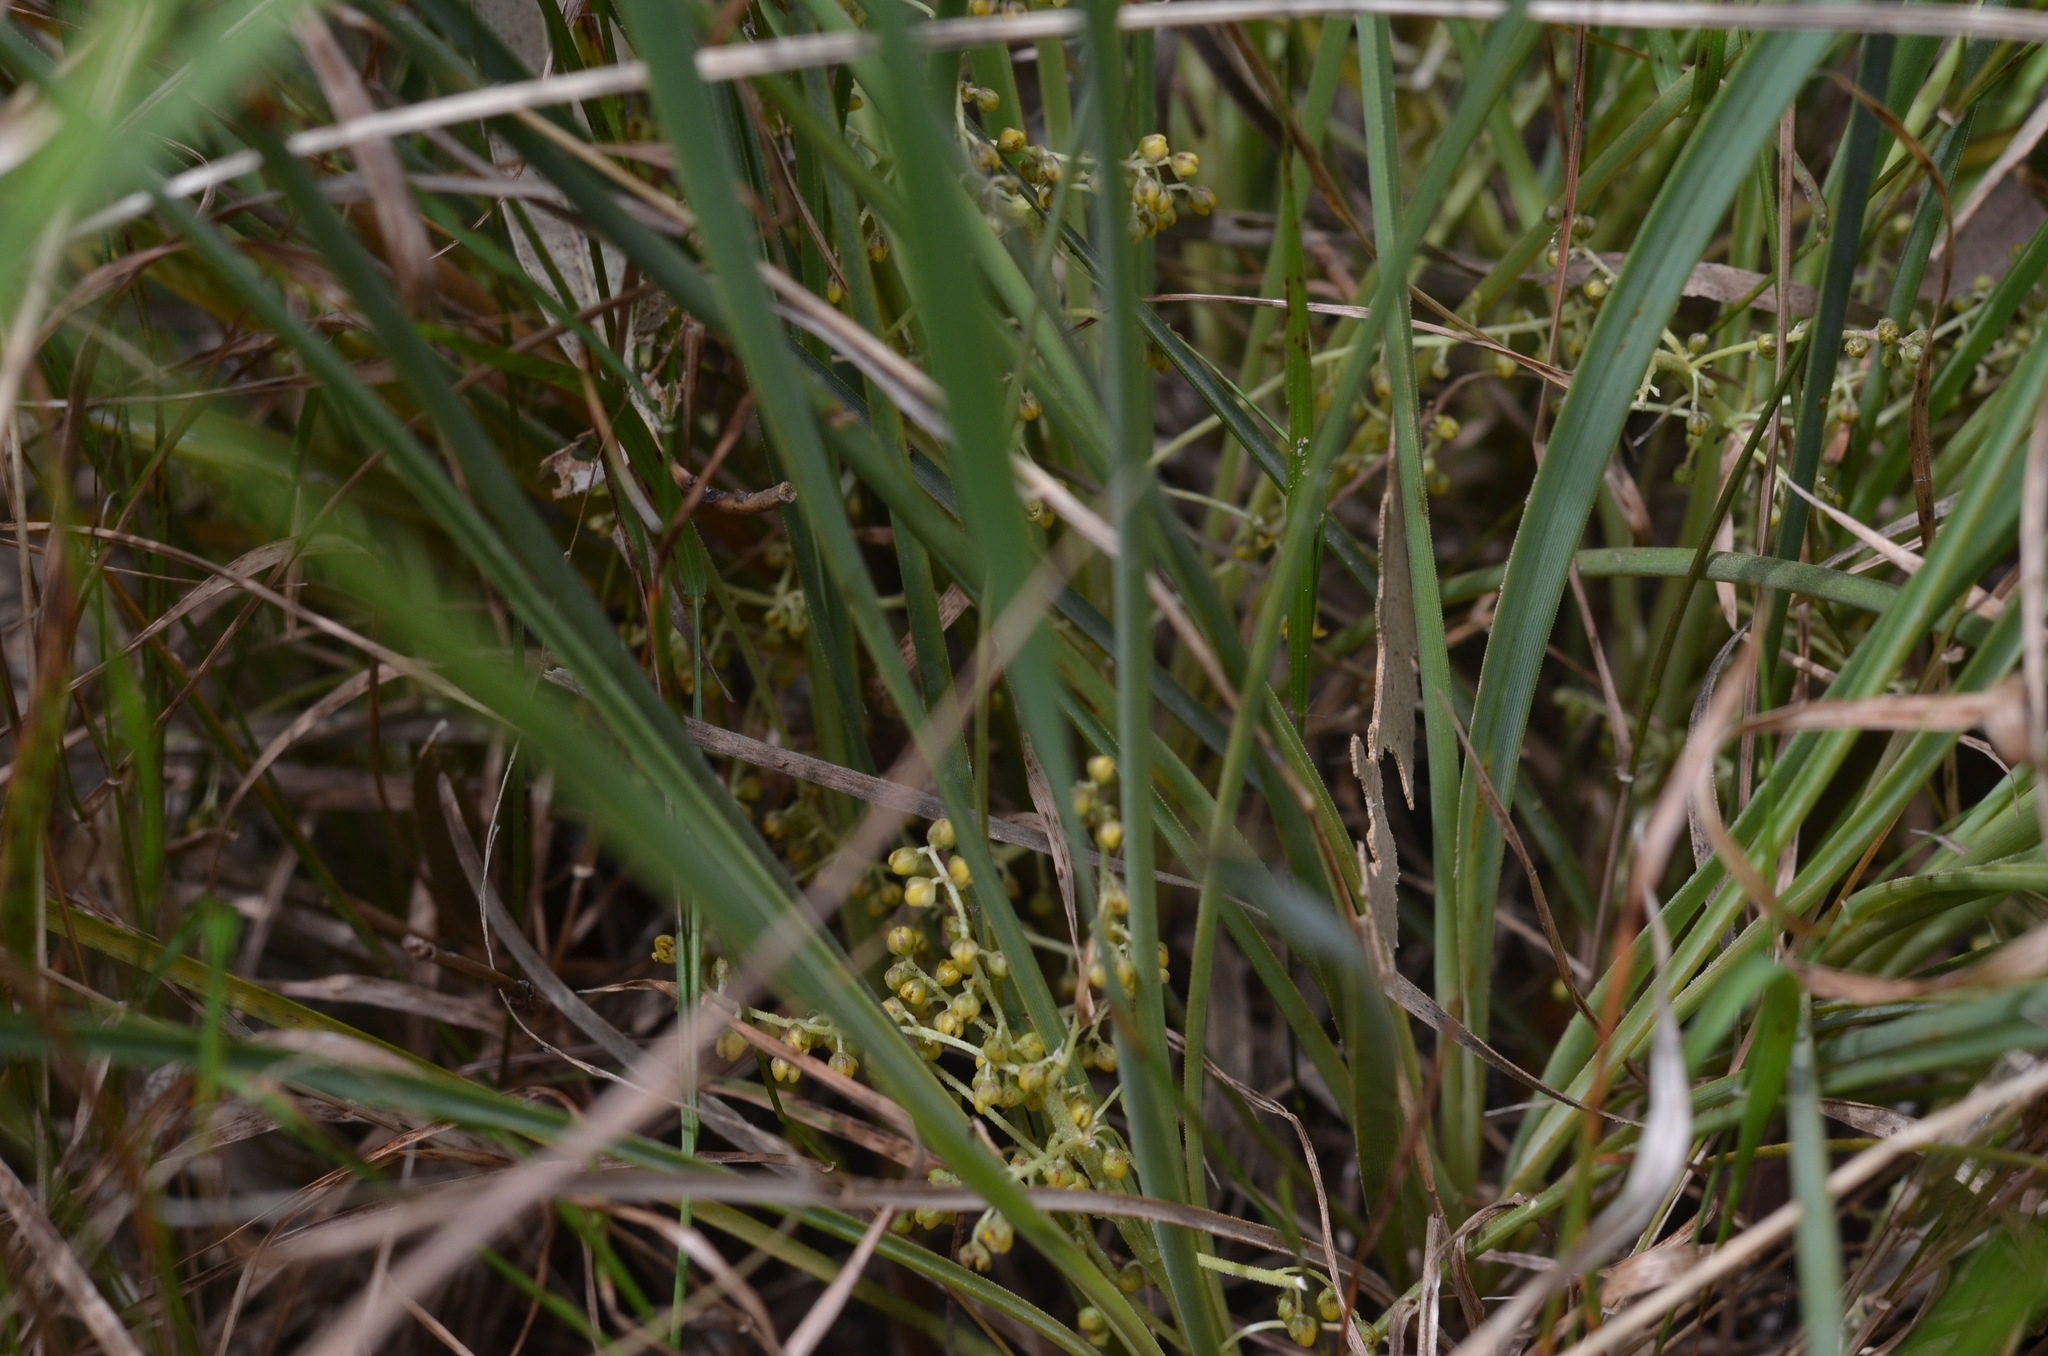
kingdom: Plantae
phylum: Tracheophyta
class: Liliopsida
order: Asparagales
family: Asparagaceae
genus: Lomandra
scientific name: Lomandra filiformis
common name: Wattle mat-rush
